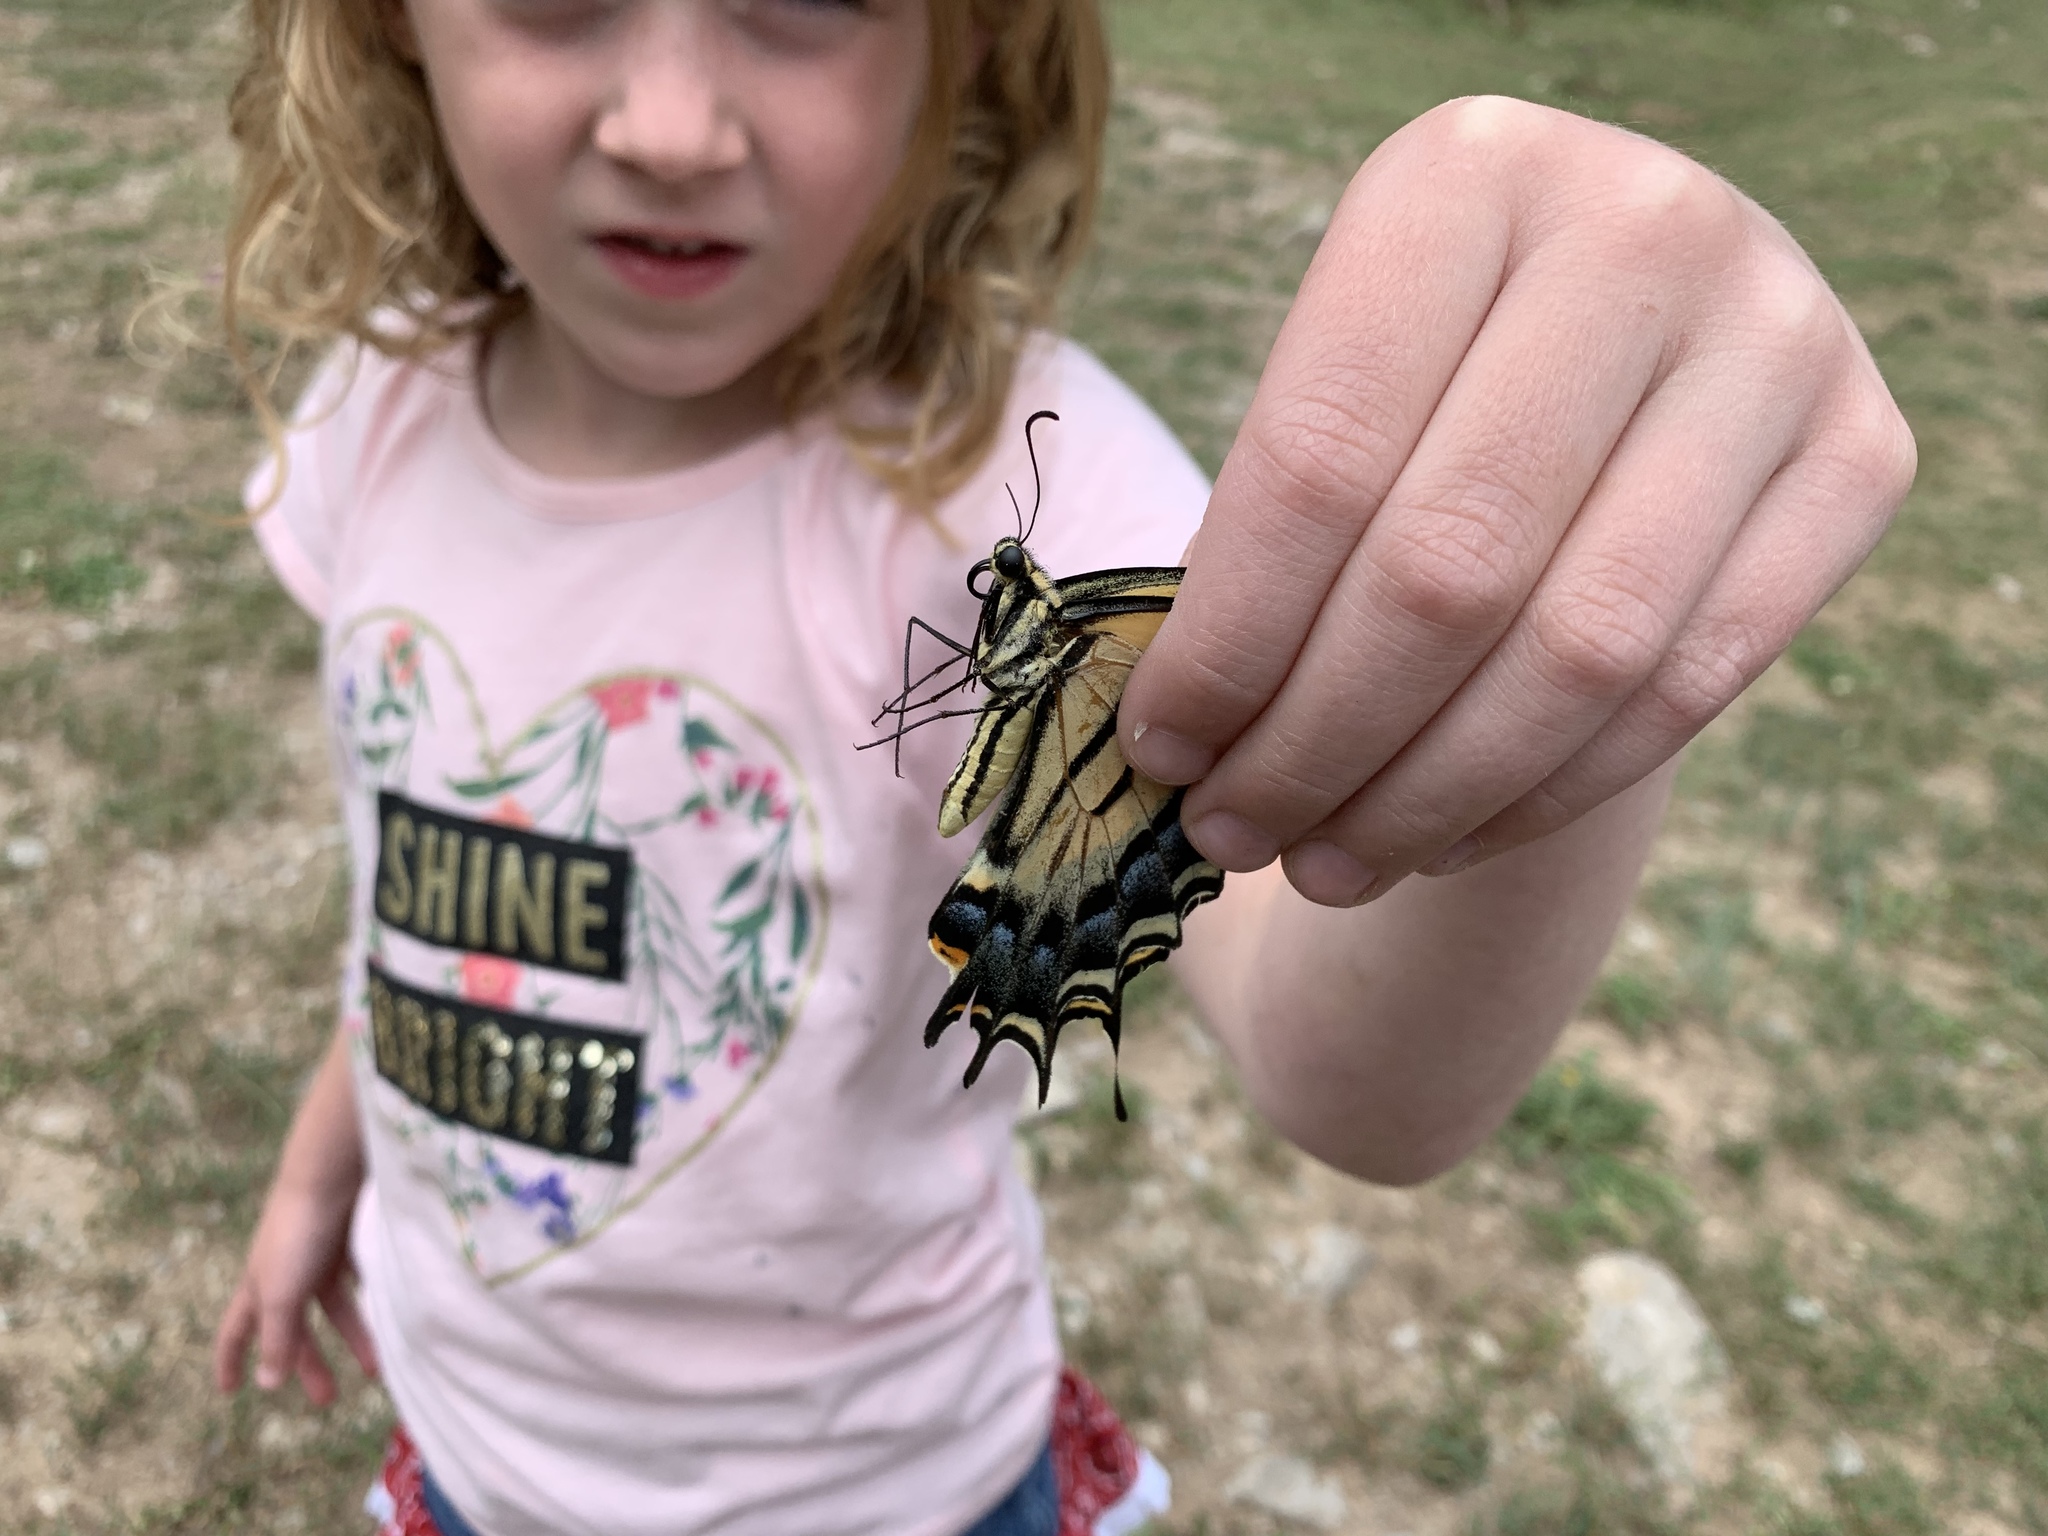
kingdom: Animalia
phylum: Arthropoda
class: Insecta
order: Lepidoptera
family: Papilionidae
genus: Papilio
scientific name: Papilio multicaudata
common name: Two-tailed tiger swallowtail
